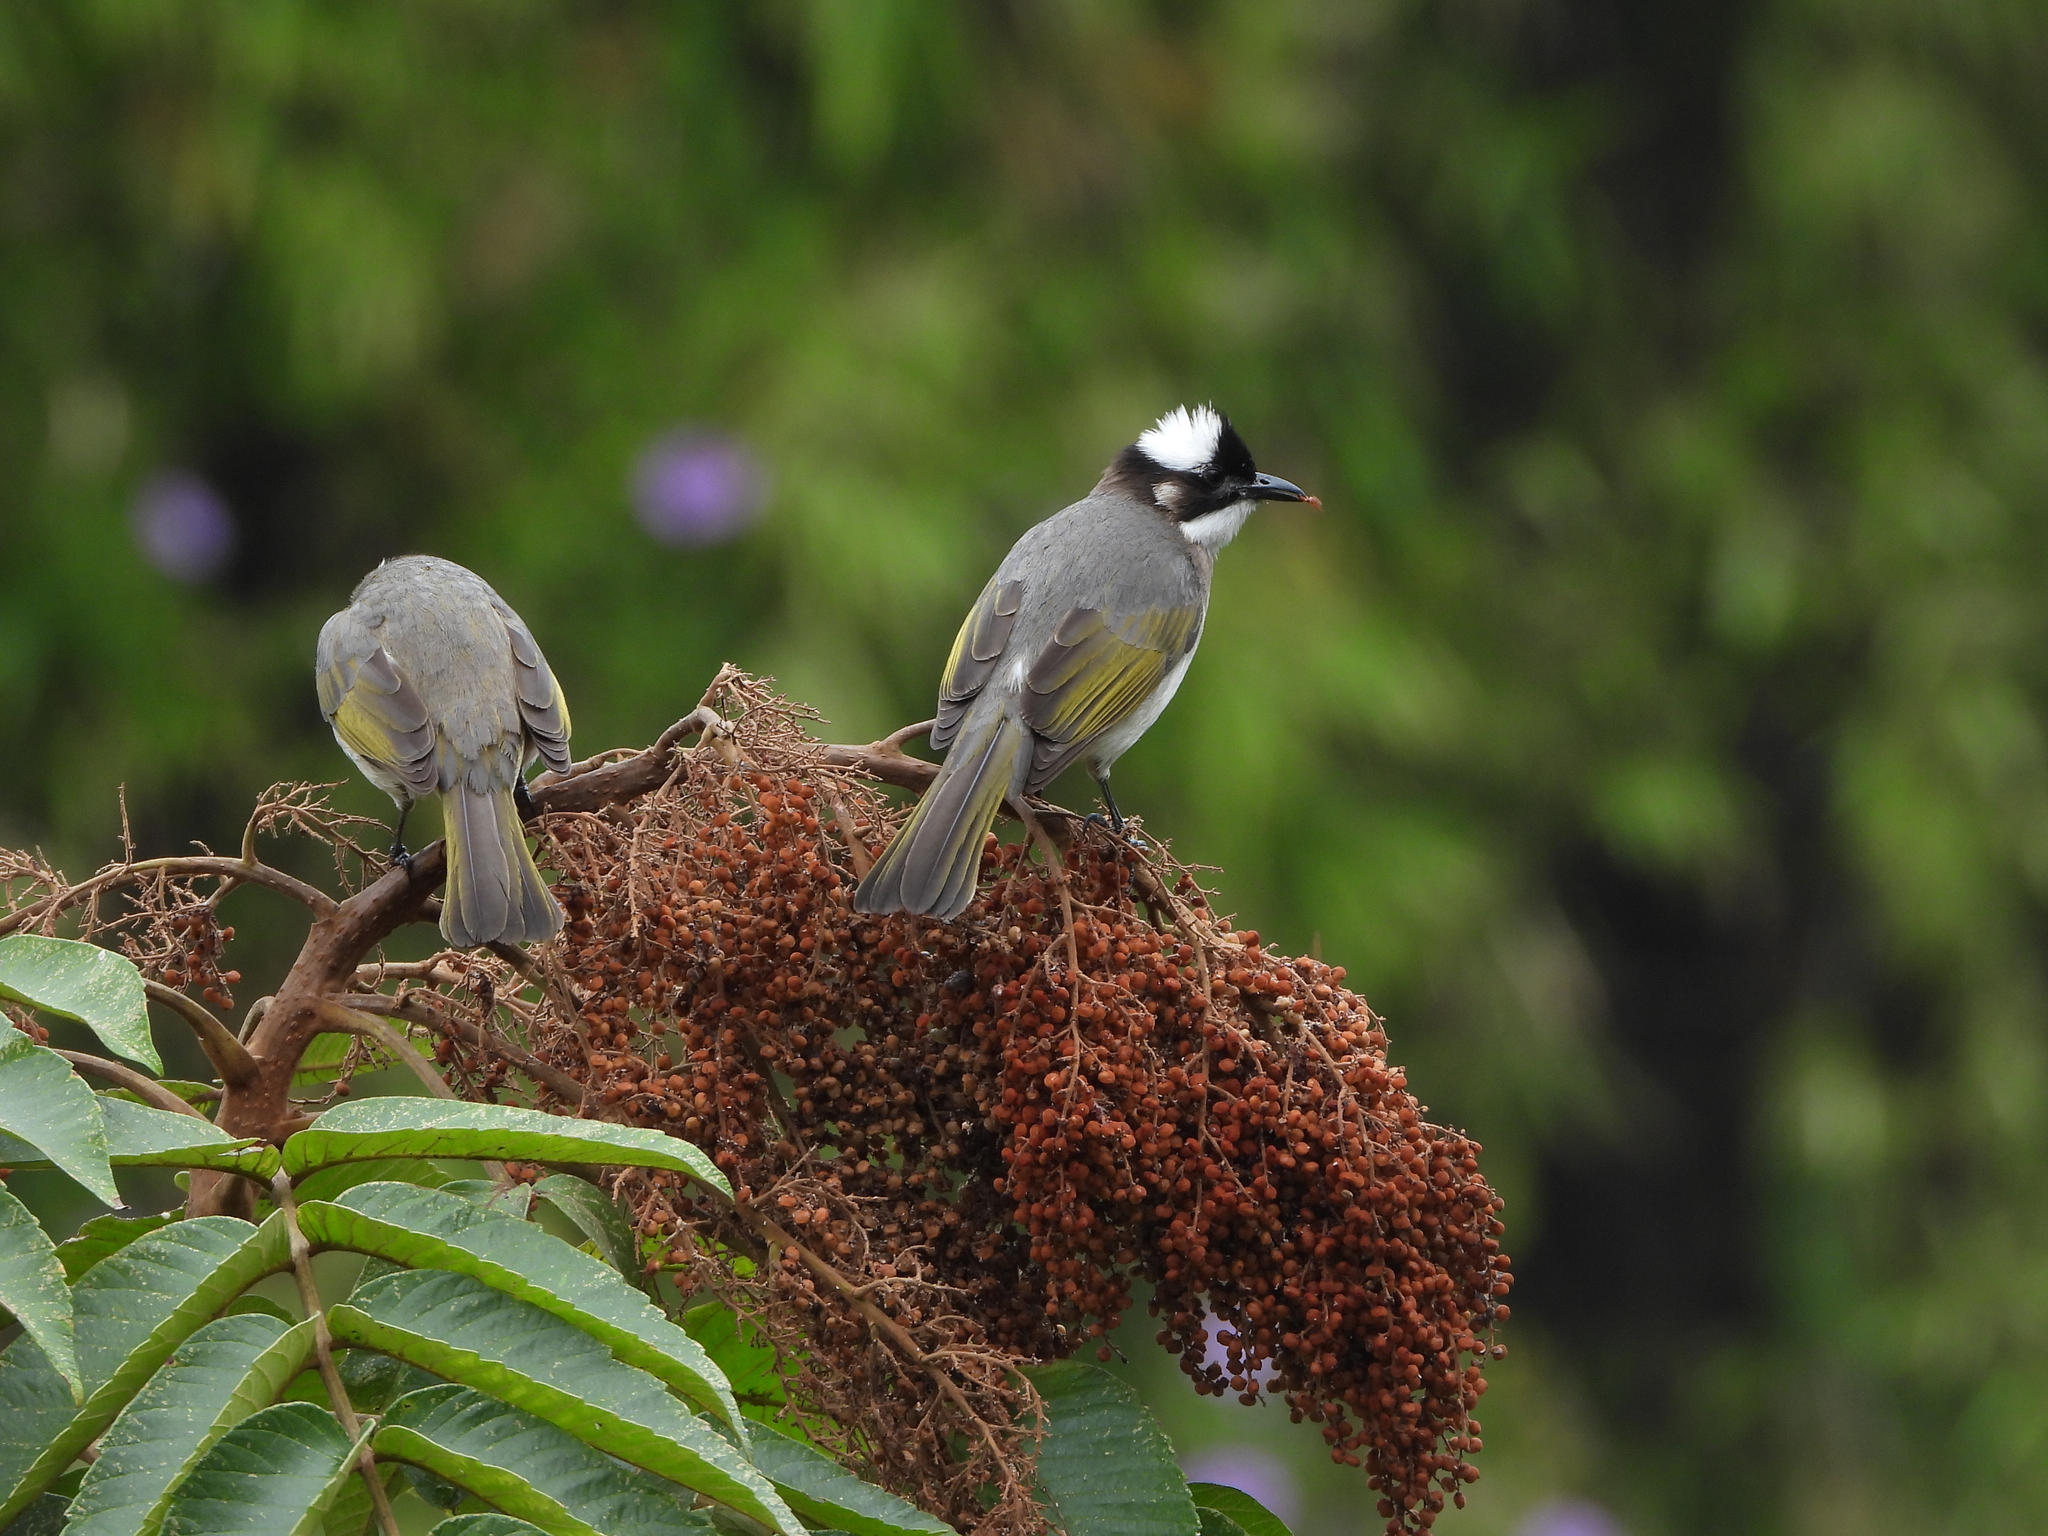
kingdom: Animalia
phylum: Chordata
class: Aves
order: Passeriformes
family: Pycnonotidae
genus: Pycnonotus
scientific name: Pycnonotus sinensis
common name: Light-vented bulbul
